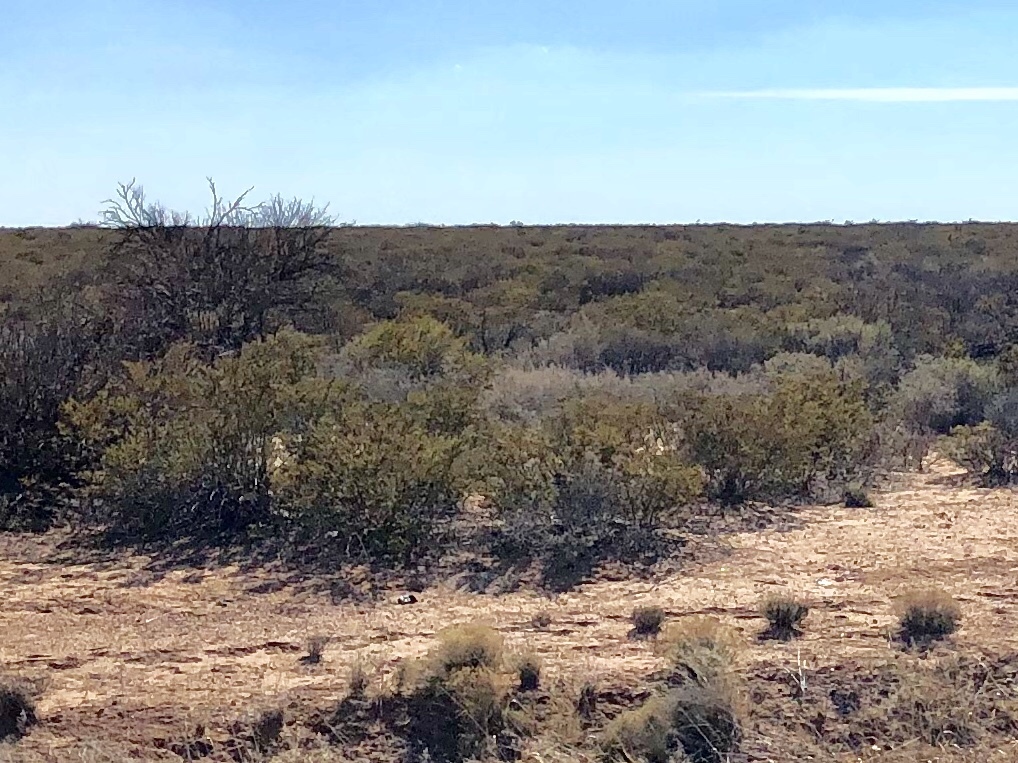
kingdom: Plantae
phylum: Tracheophyta
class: Magnoliopsida
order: Zygophyllales
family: Zygophyllaceae
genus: Larrea
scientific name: Larrea tridentata
